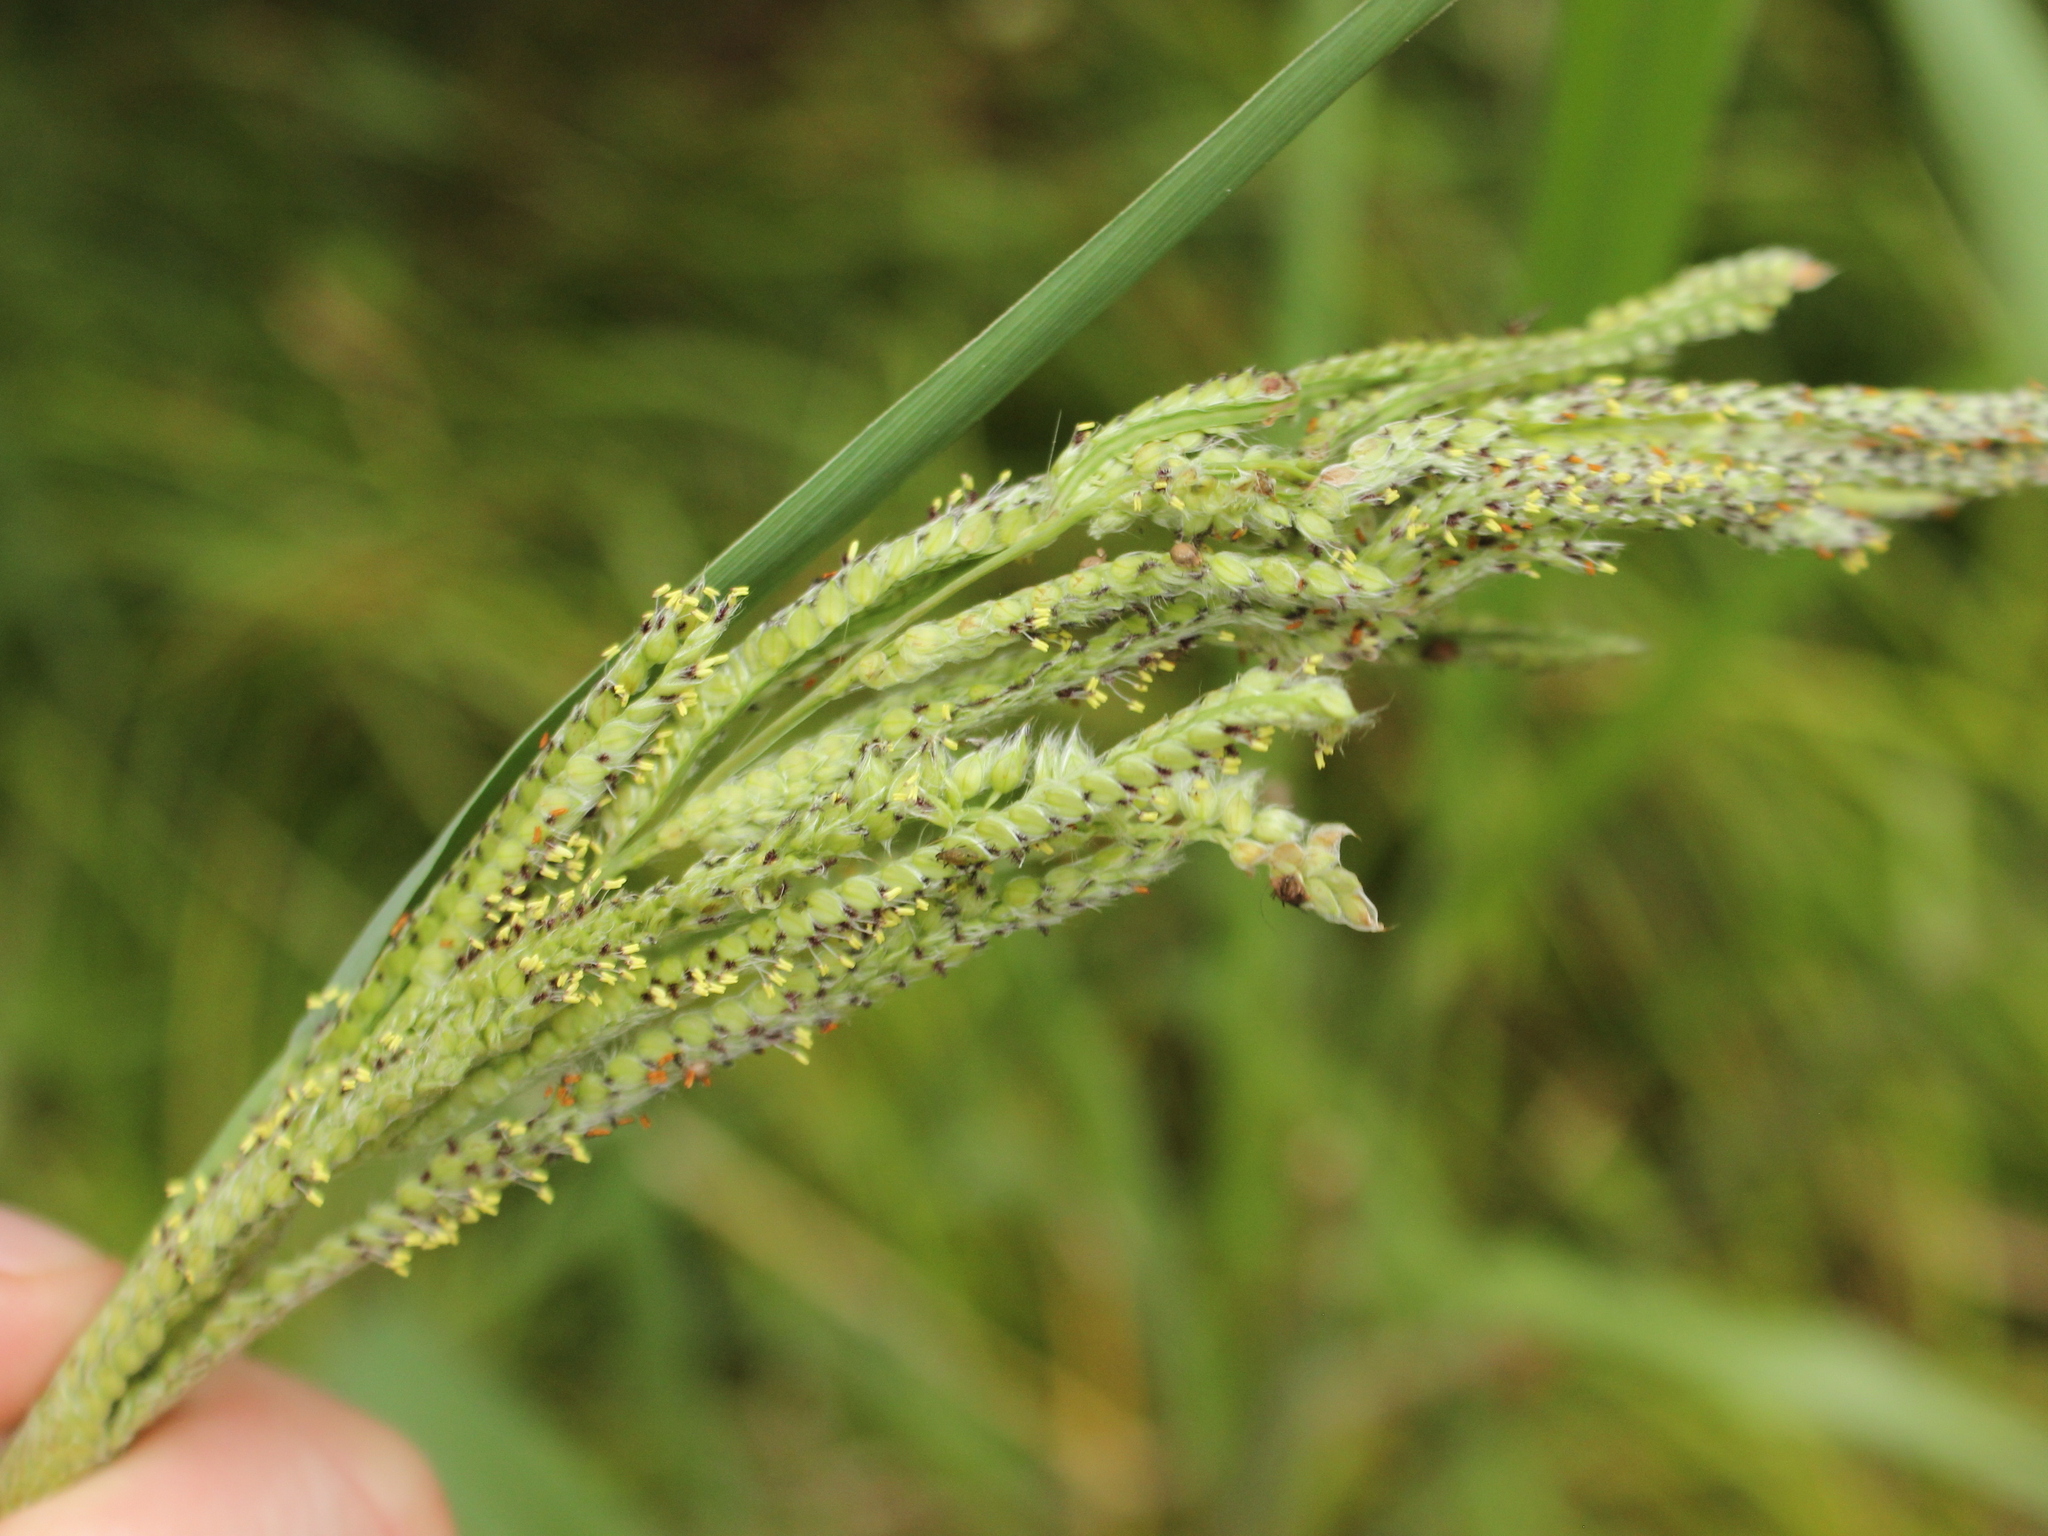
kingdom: Plantae
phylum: Tracheophyta
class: Liliopsida
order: Poales
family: Poaceae
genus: Paspalum
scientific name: Paspalum urvillei
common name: Vasey's grass
